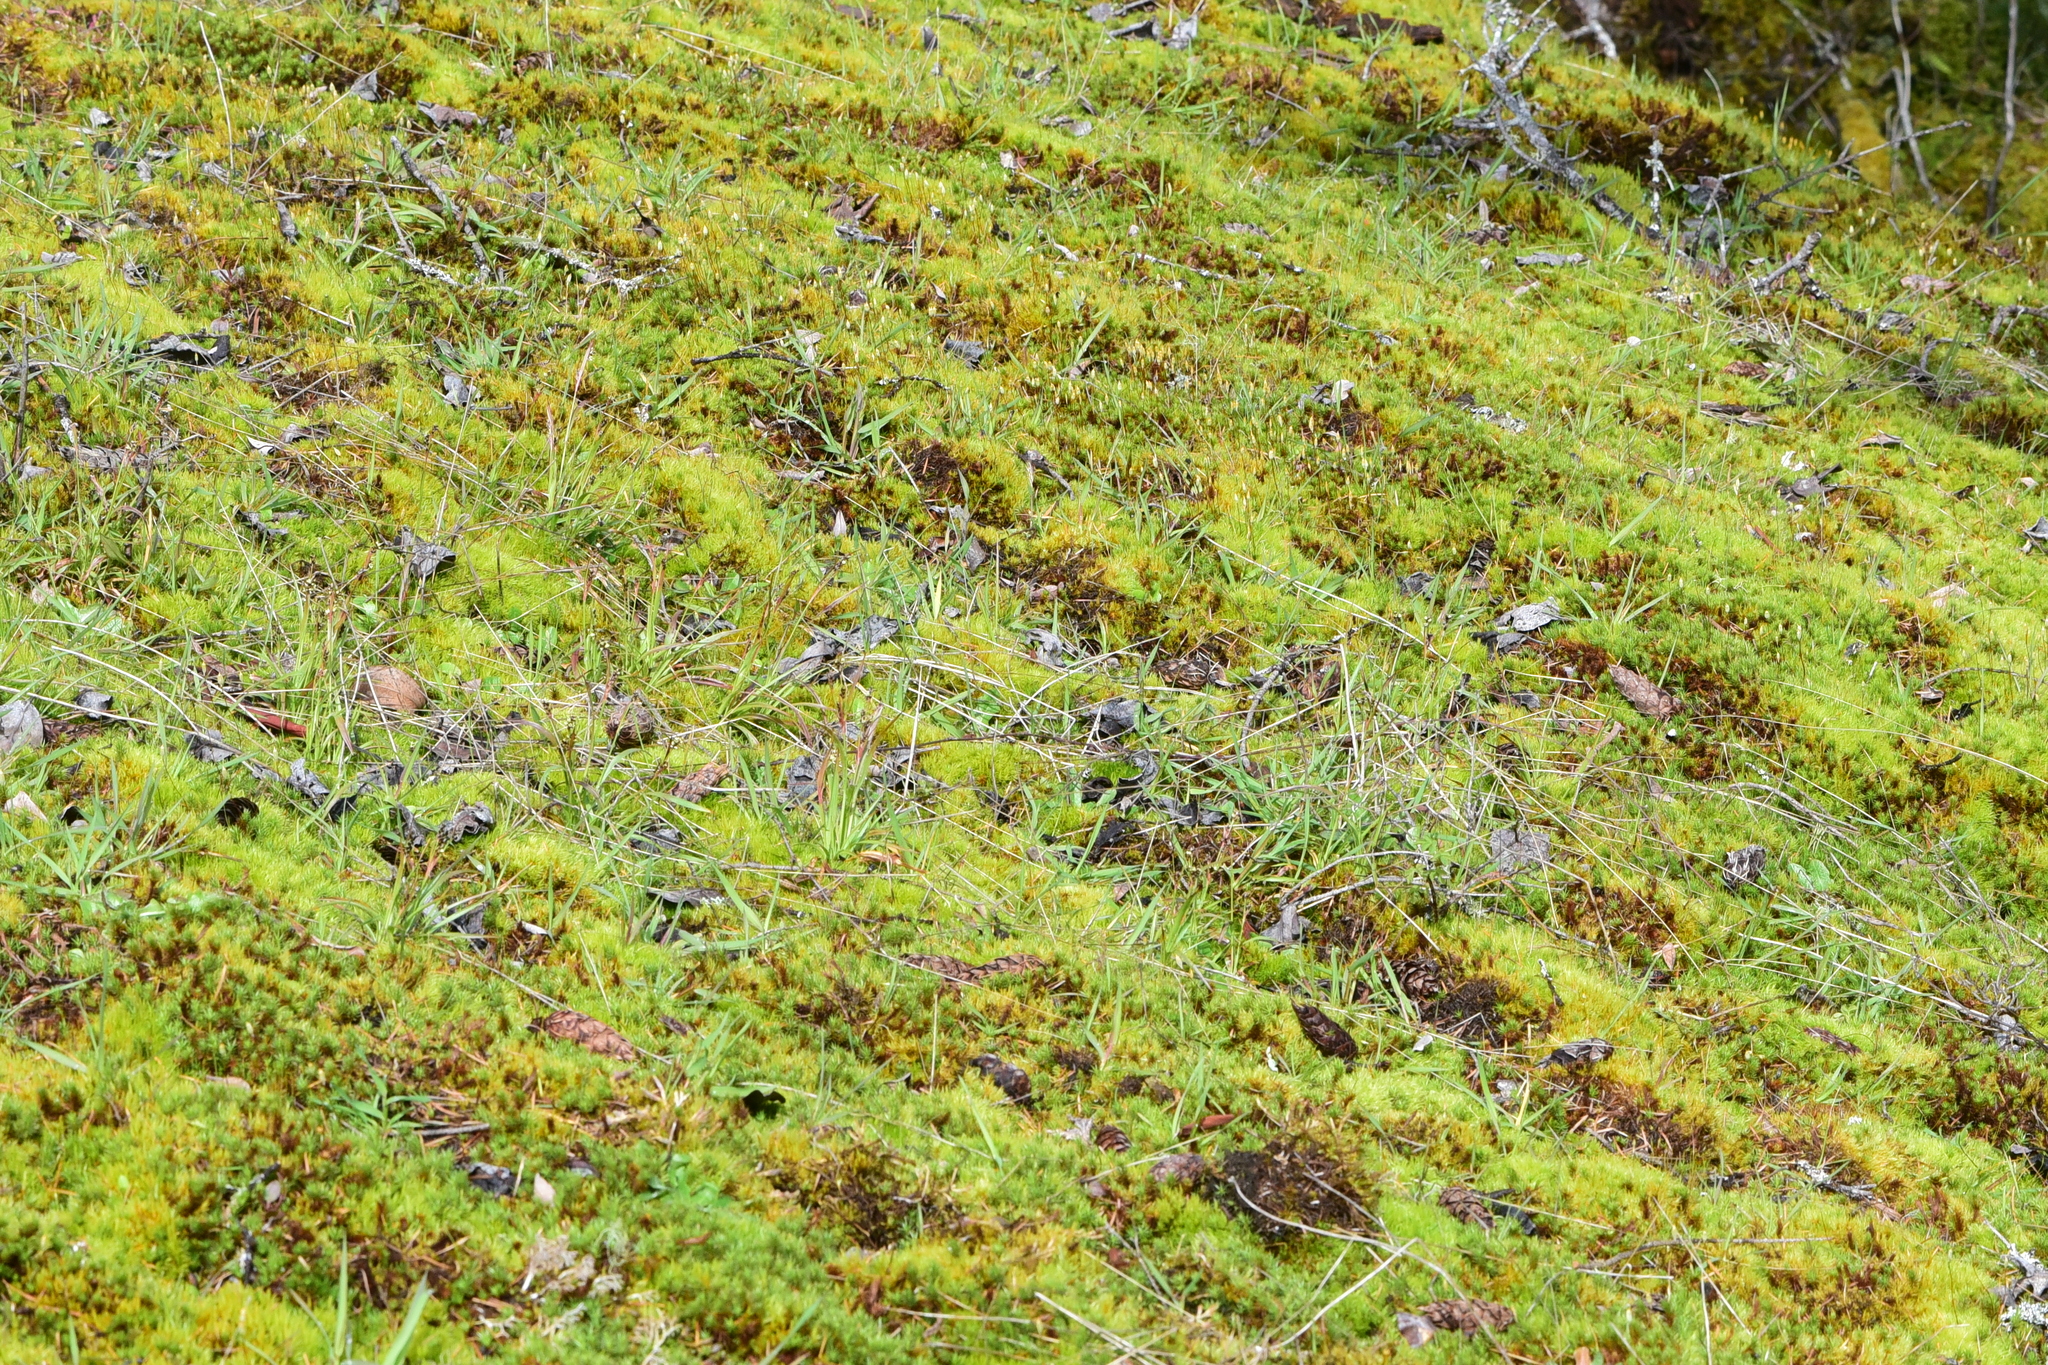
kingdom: Plantae
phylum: Tracheophyta
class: Liliopsida
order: Poales
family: Juncaceae
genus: Luzula
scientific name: Luzula macrantha
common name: Large-anthered woodrush
